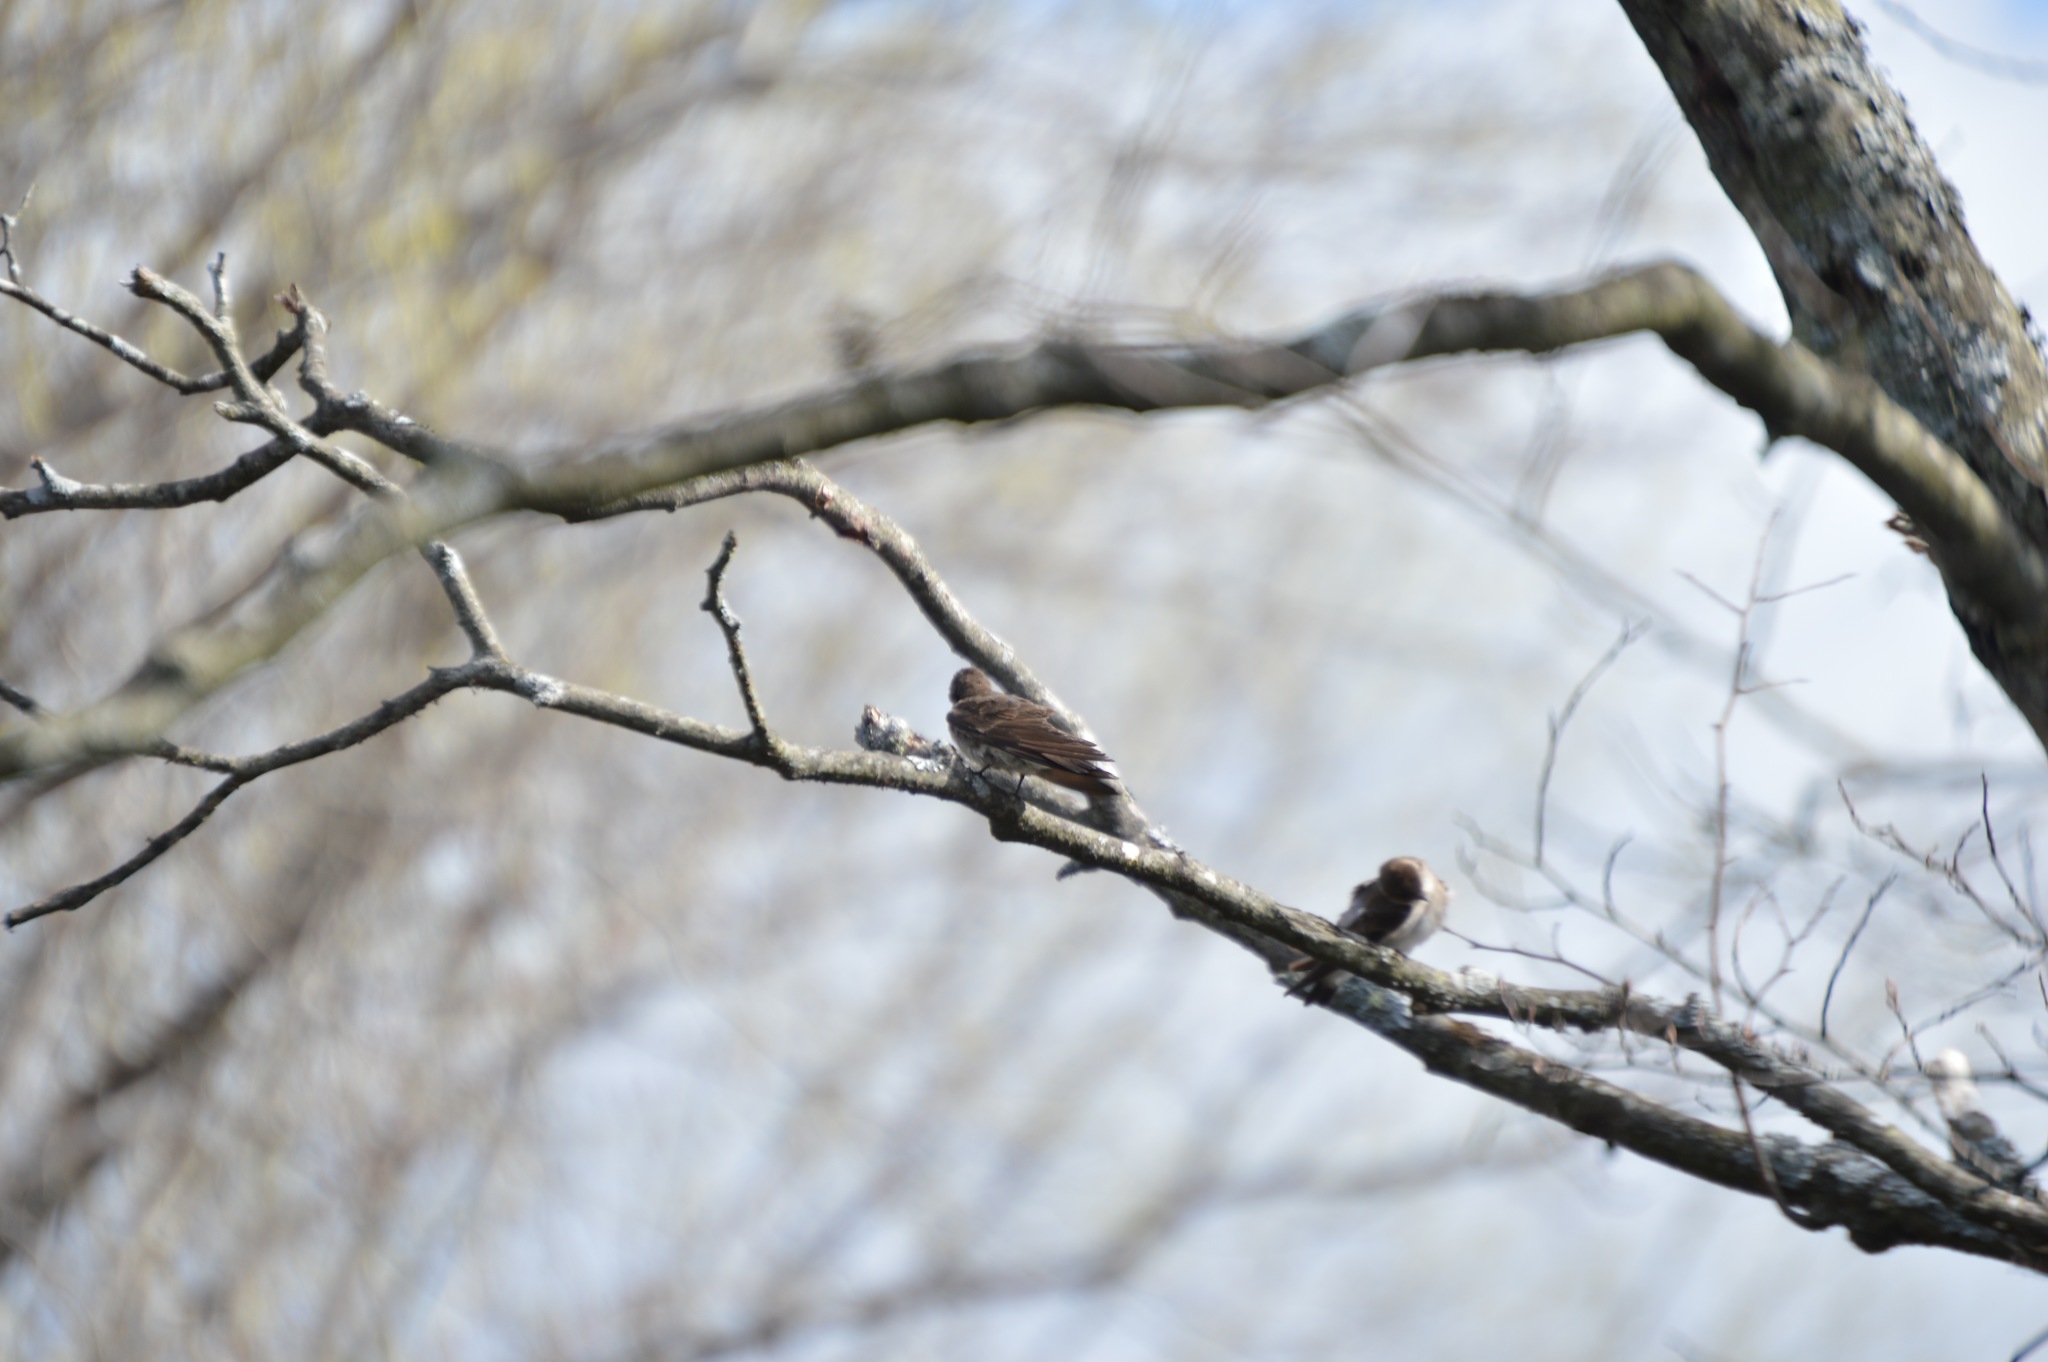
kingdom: Animalia
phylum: Chordata
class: Aves
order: Passeriformes
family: Hirundinidae
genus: Stelgidopteryx
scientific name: Stelgidopteryx serripennis
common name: Northern rough-winged swallow
